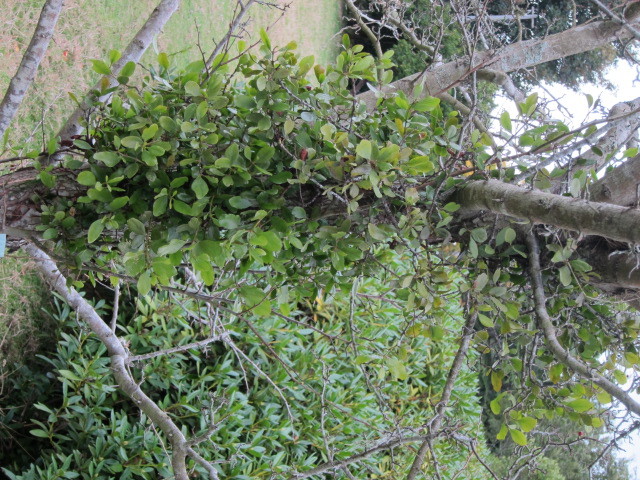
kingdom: Plantae
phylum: Tracheophyta
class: Magnoliopsida
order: Santalales
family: Loranthaceae
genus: Ileostylus
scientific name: Ileostylus micranthus
